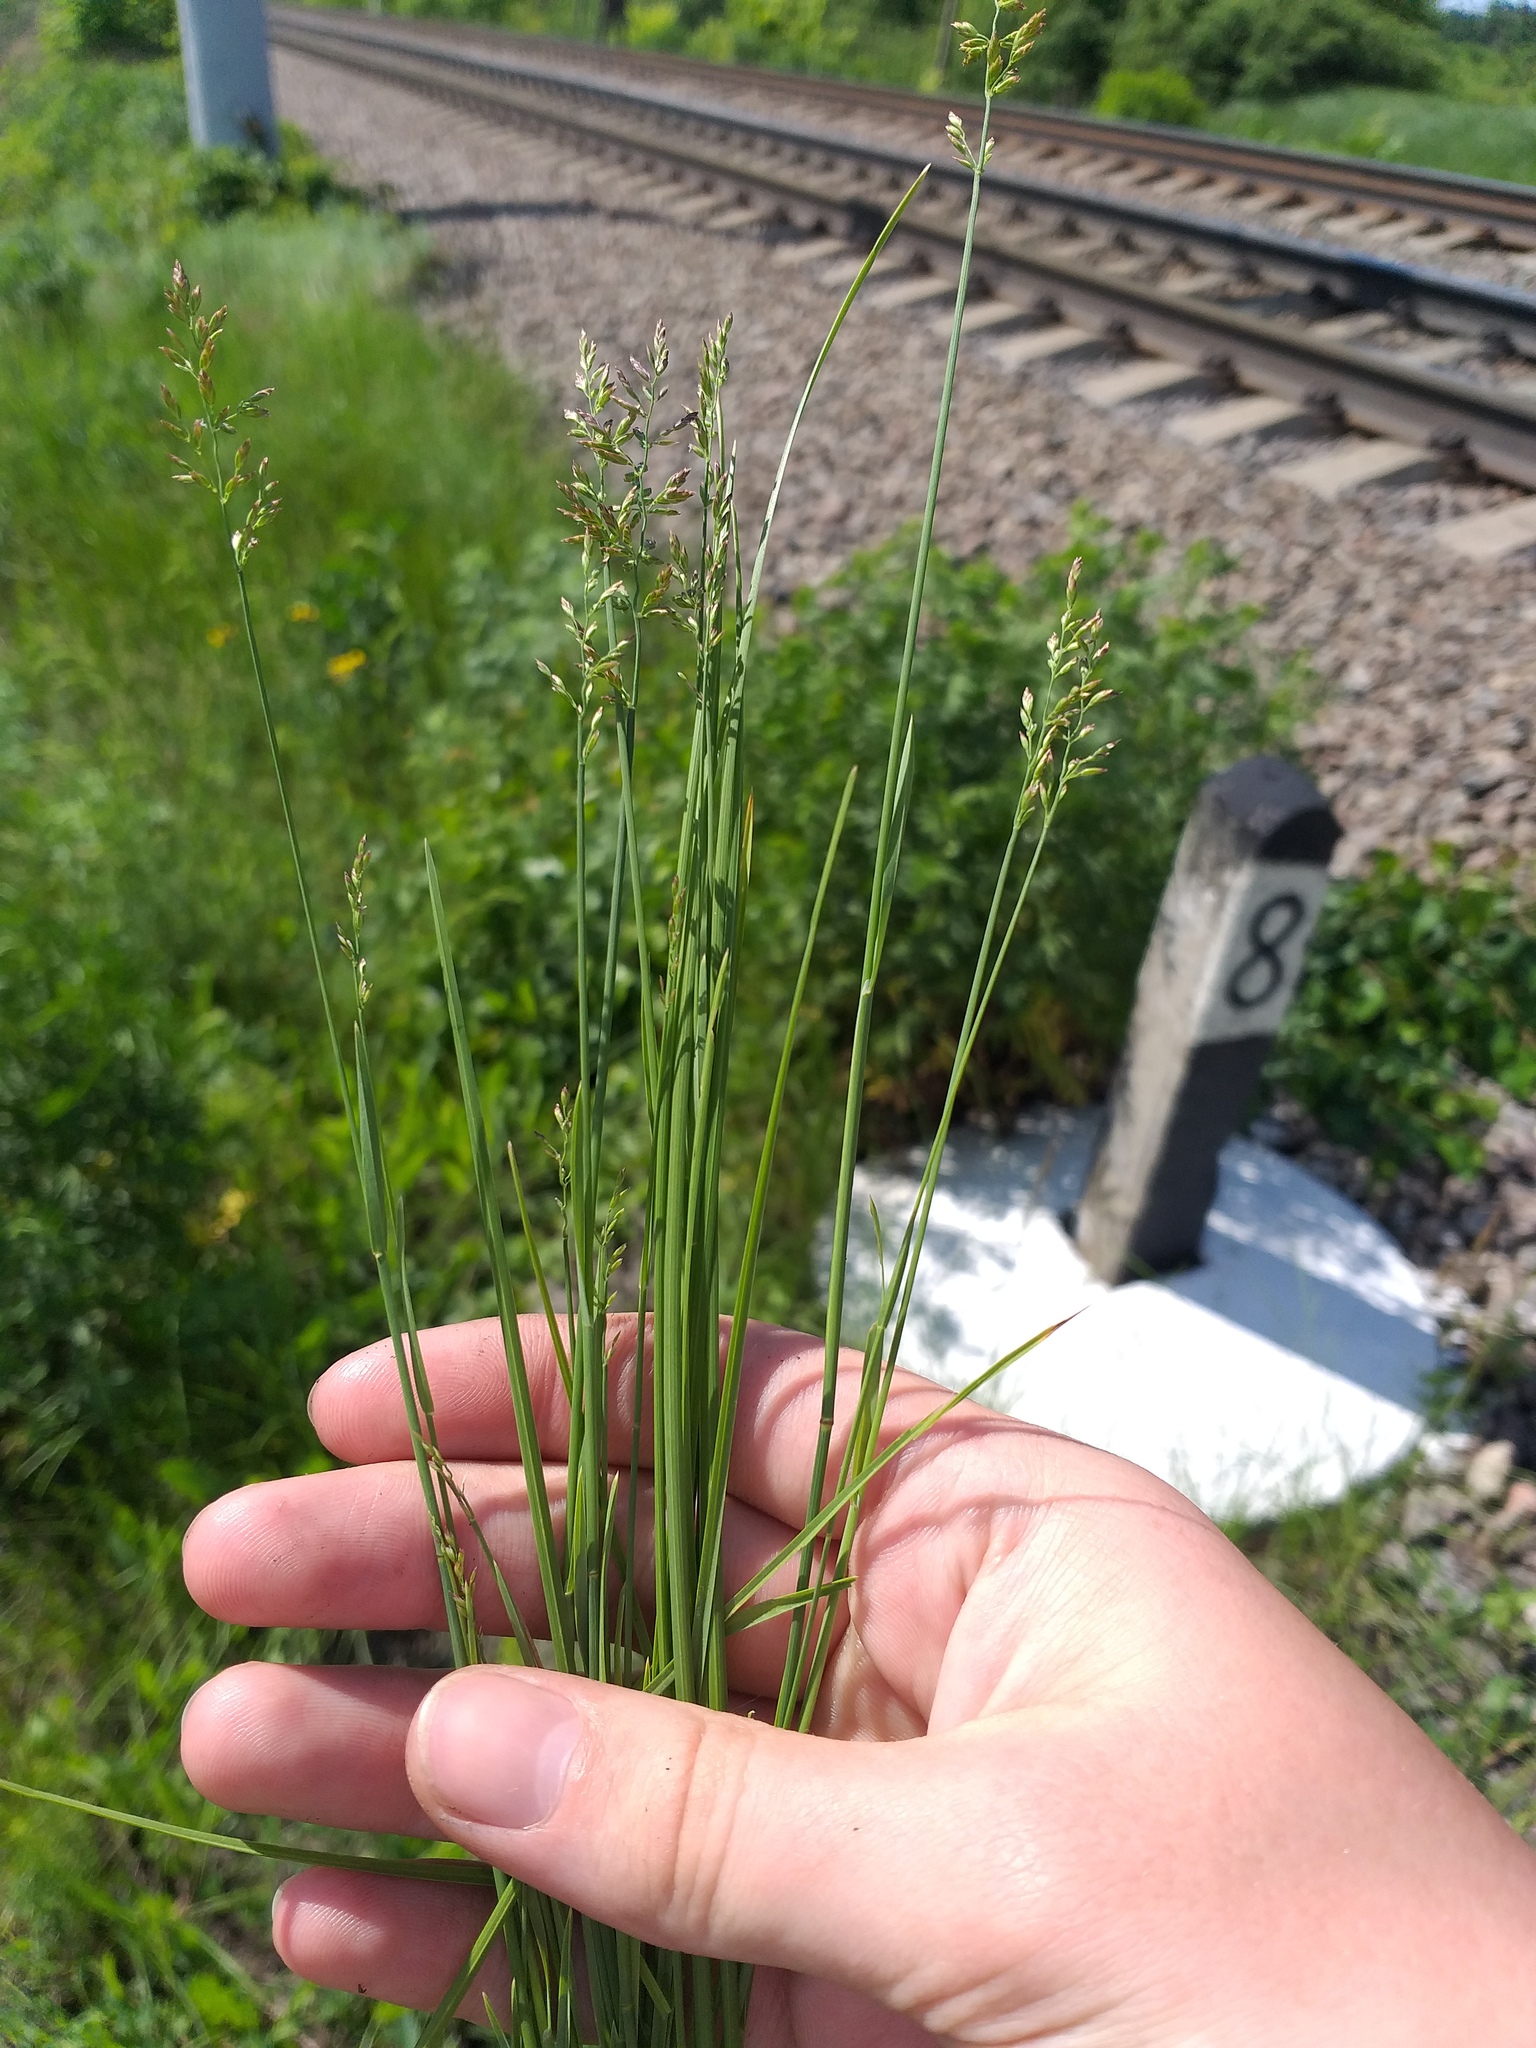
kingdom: Plantae
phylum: Tracheophyta
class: Liliopsida
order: Poales
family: Poaceae
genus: Poa
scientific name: Poa compressa
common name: Canada bluegrass
